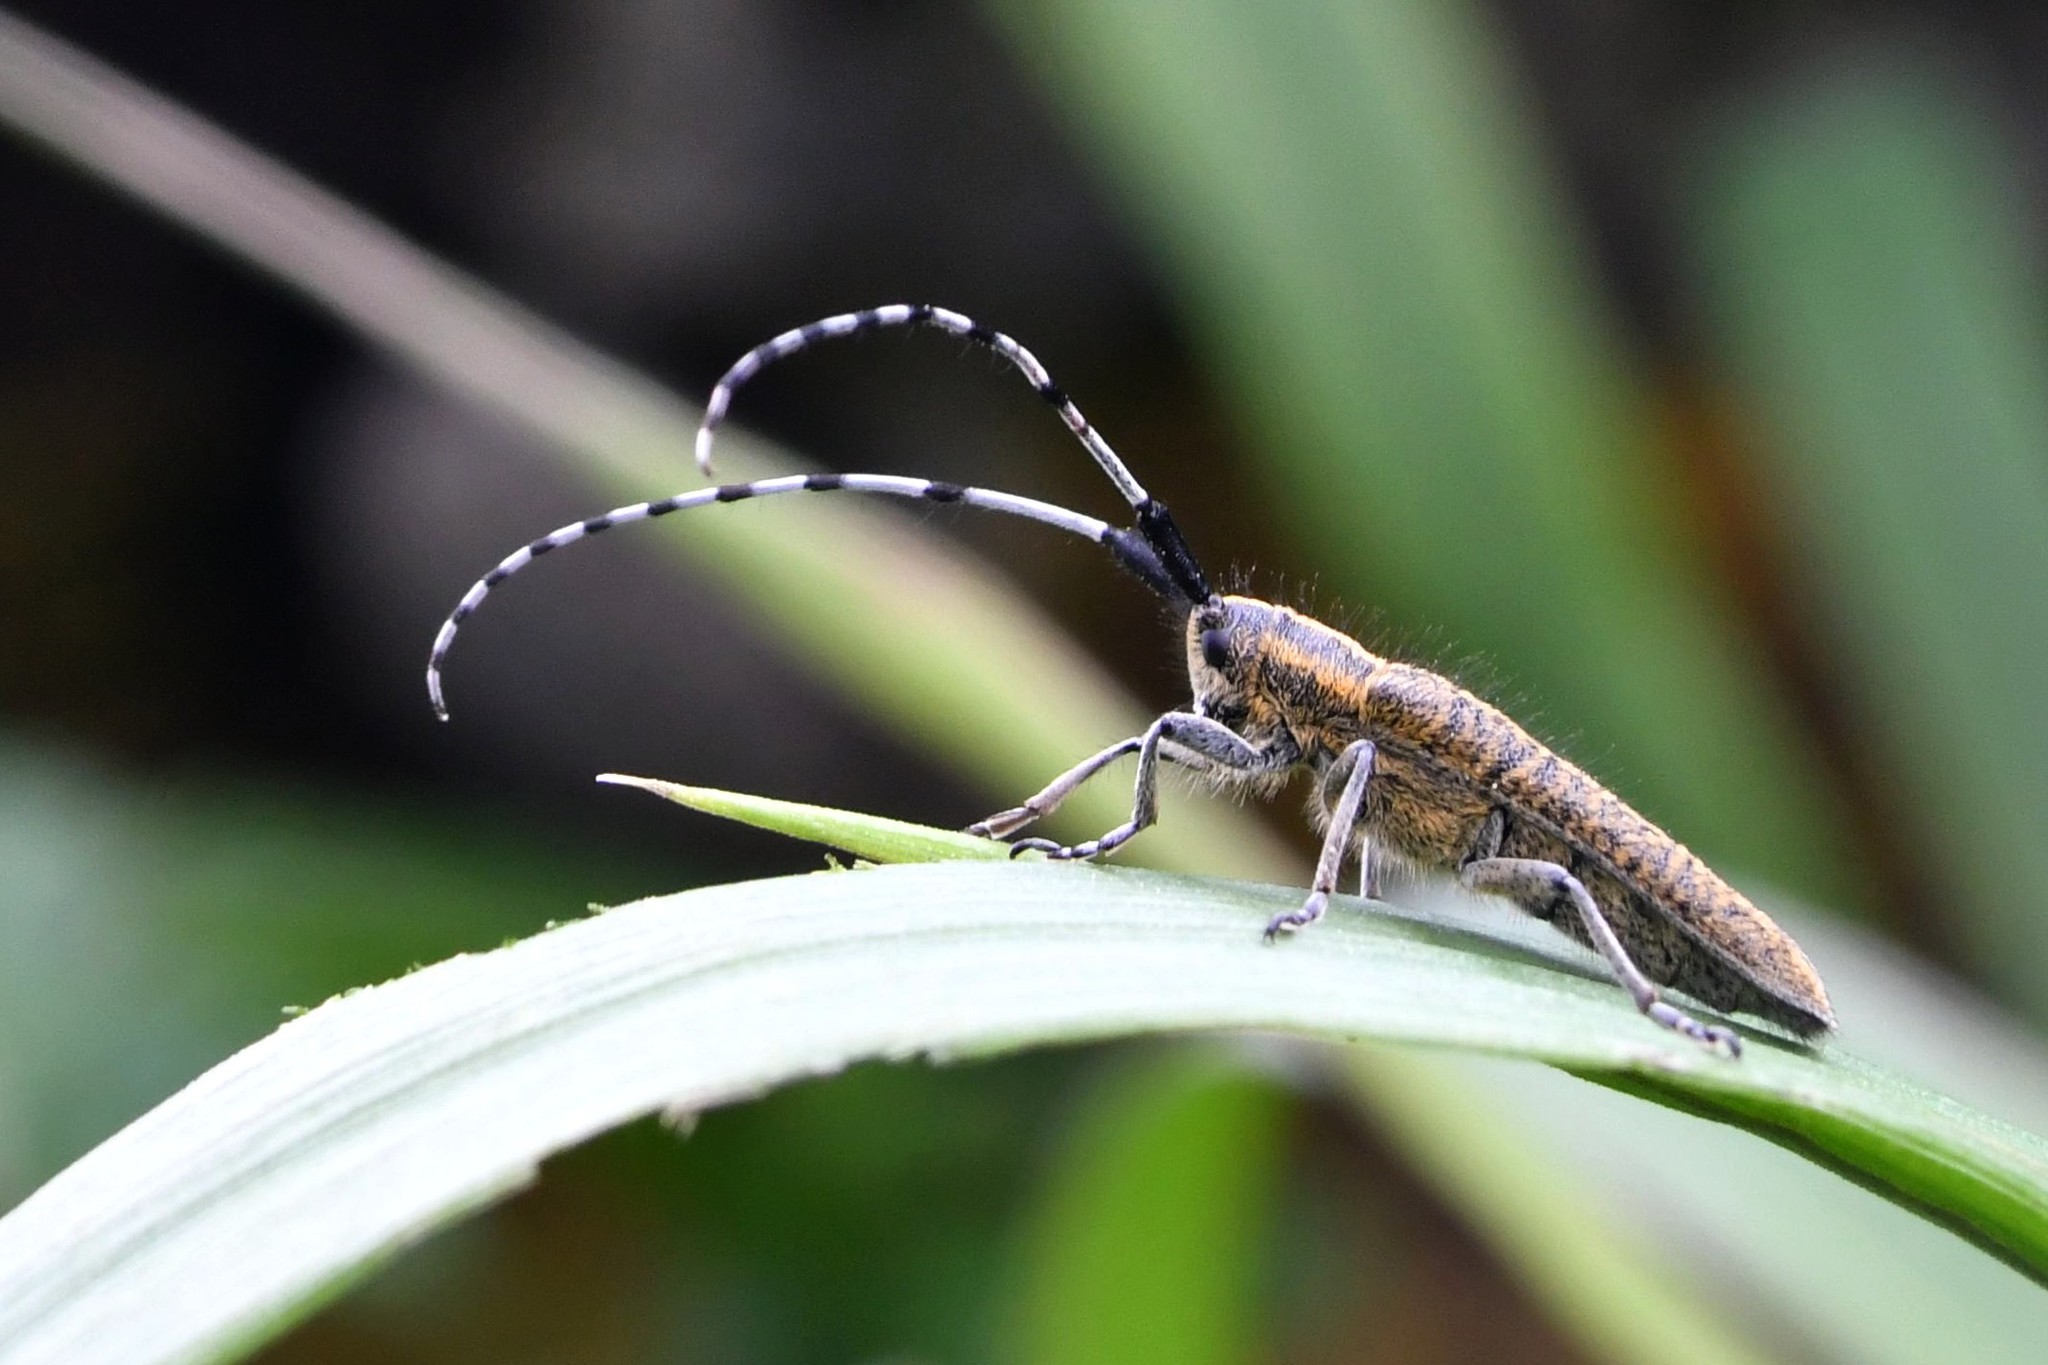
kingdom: Animalia
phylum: Arthropoda
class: Insecta
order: Coleoptera
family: Cerambycidae
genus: Agapanthia
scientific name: Agapanthia villosoviridescens
